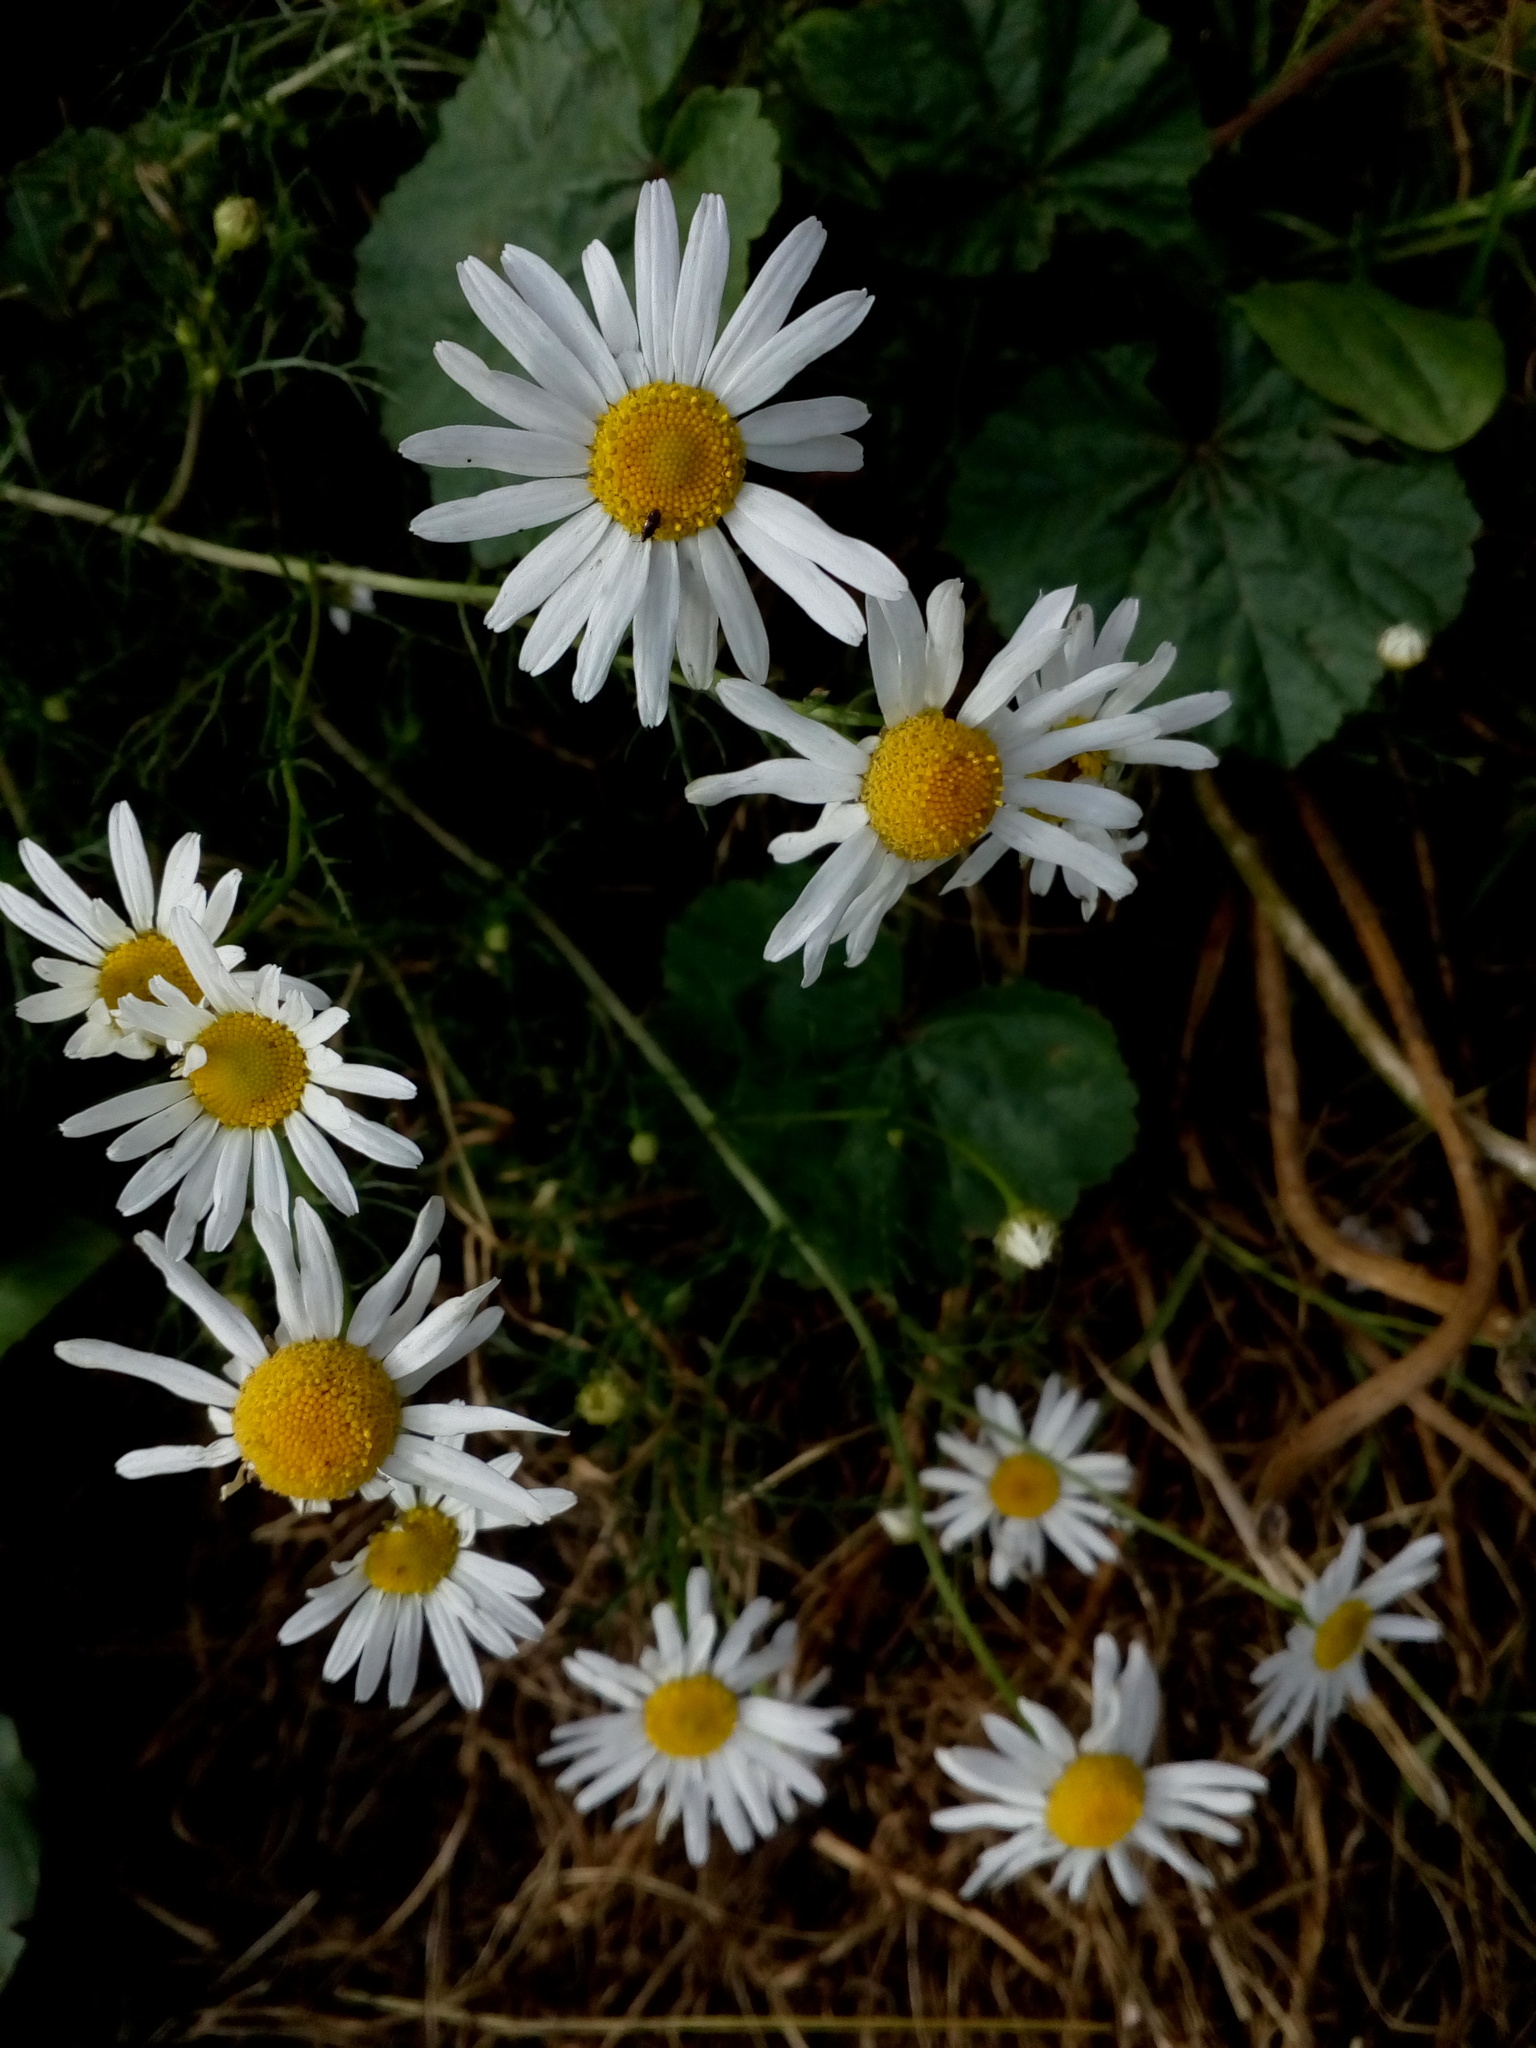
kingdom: Plantae
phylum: Tracheophyta
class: Magnoliopsida
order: Asterales
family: Asteraceae
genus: Tripleurospermum
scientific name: Tripleurospermum inodorum
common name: Scentless mayweed
